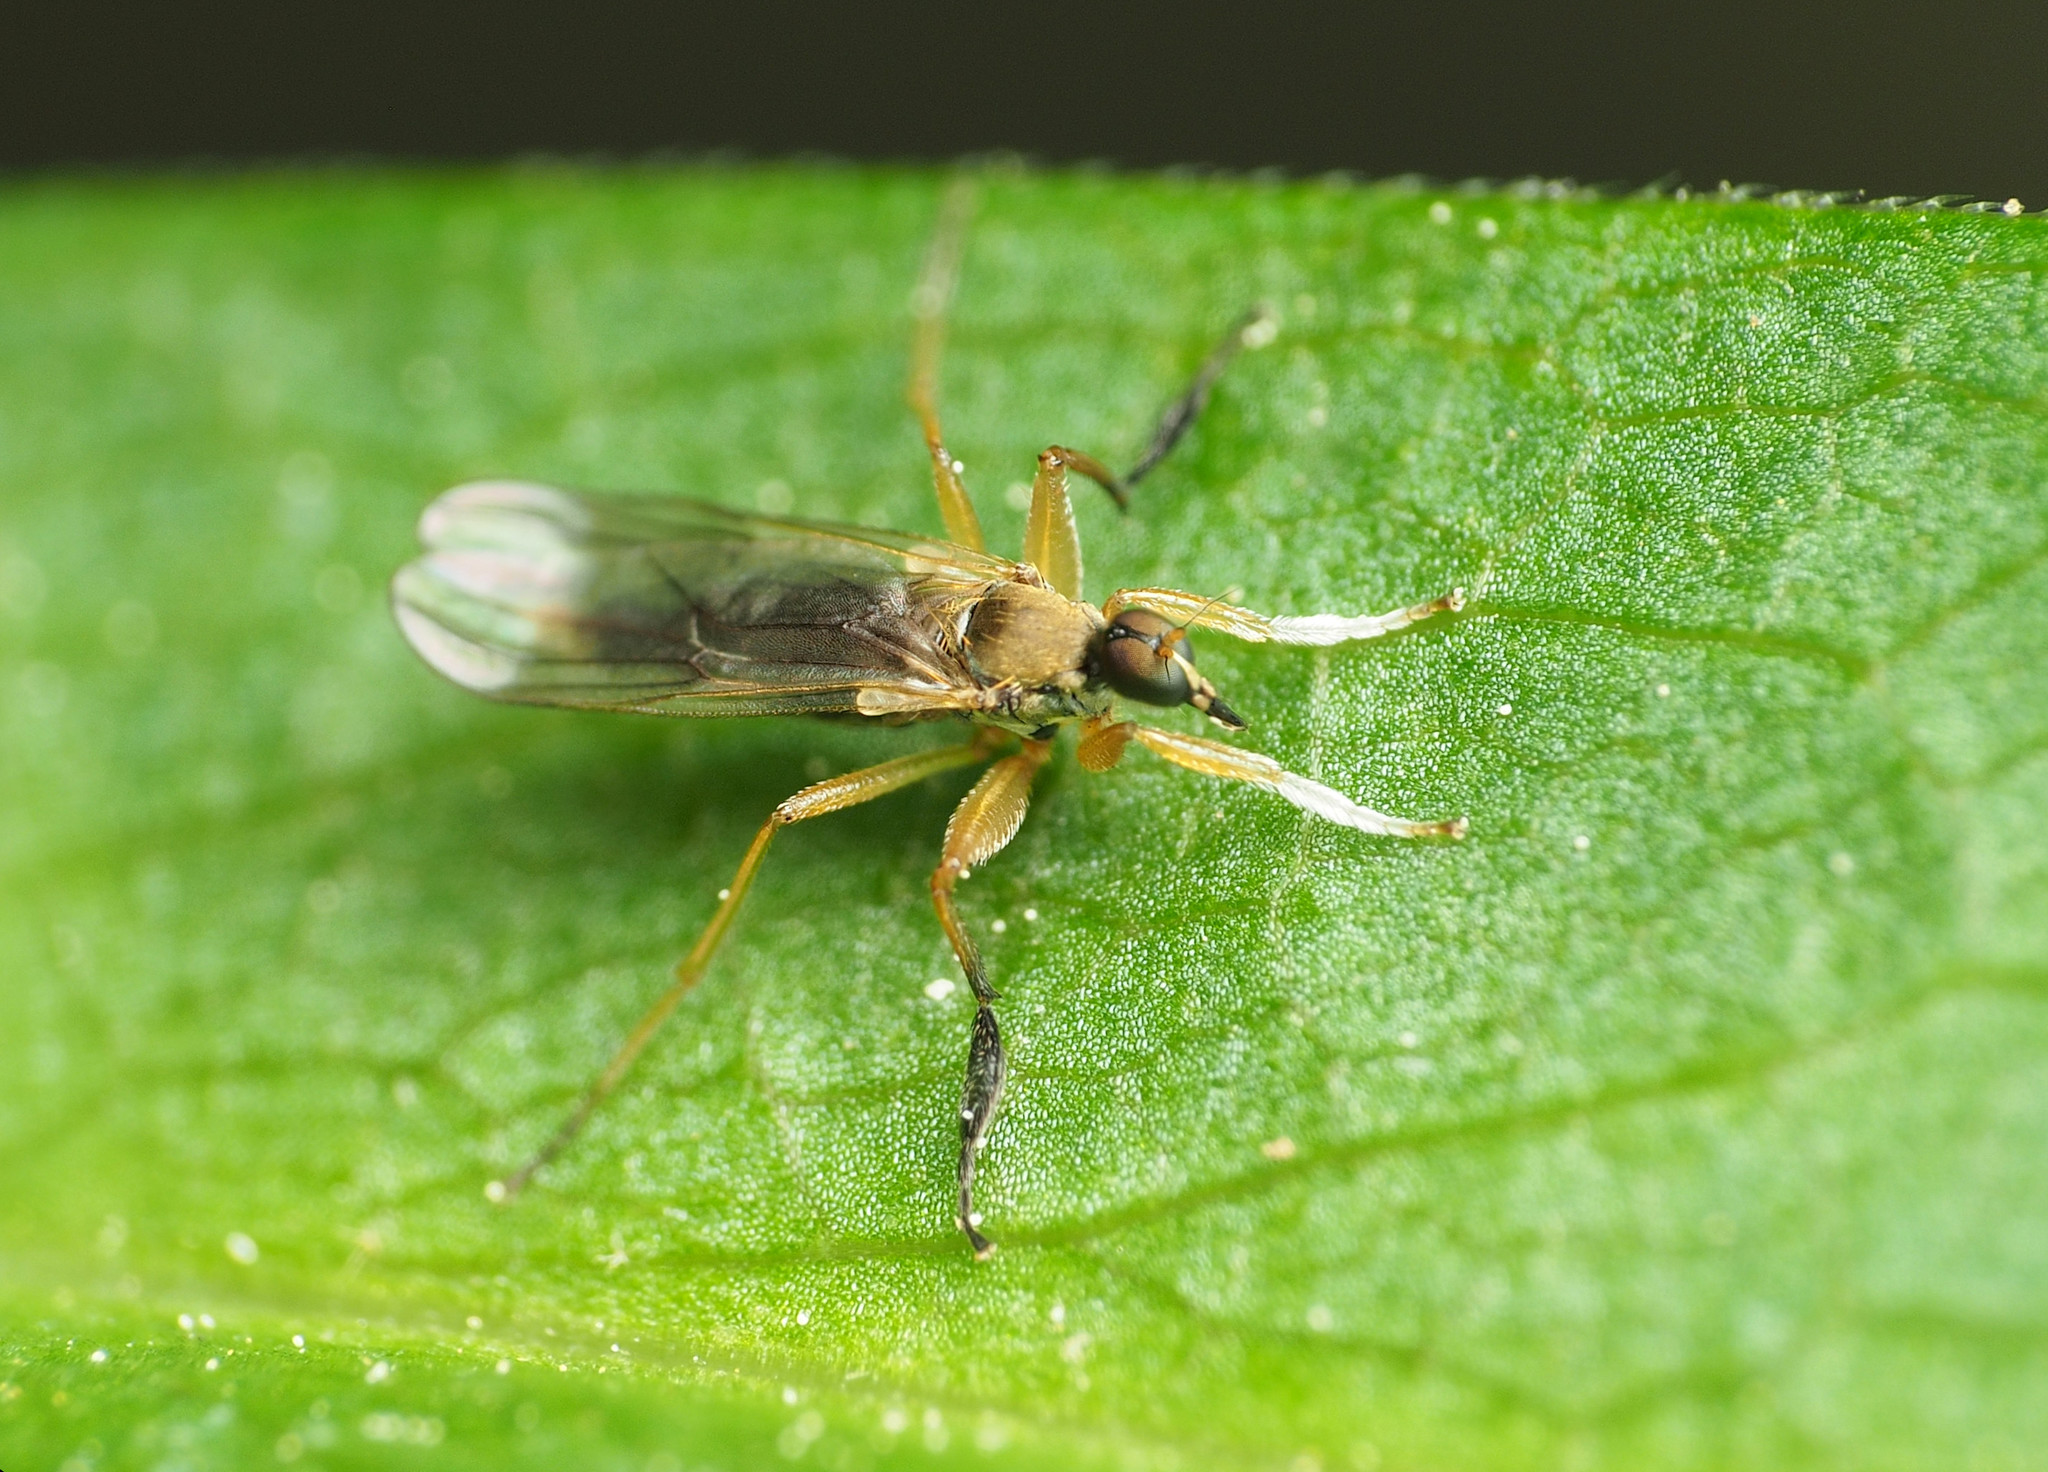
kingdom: Animalia
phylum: Arthropoda
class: Insecta
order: Diptera
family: Hybotidae
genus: Platypalpus
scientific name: Platypalpus discifer
